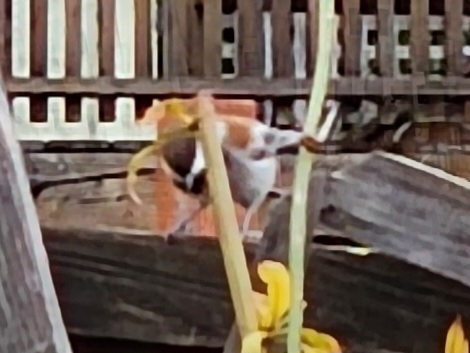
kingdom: Animalia
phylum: Chordata
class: Aves
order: Passeriformes
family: Paridae
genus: Poecile
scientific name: Poecile rufescens
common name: Chestnut-backed chickadee
